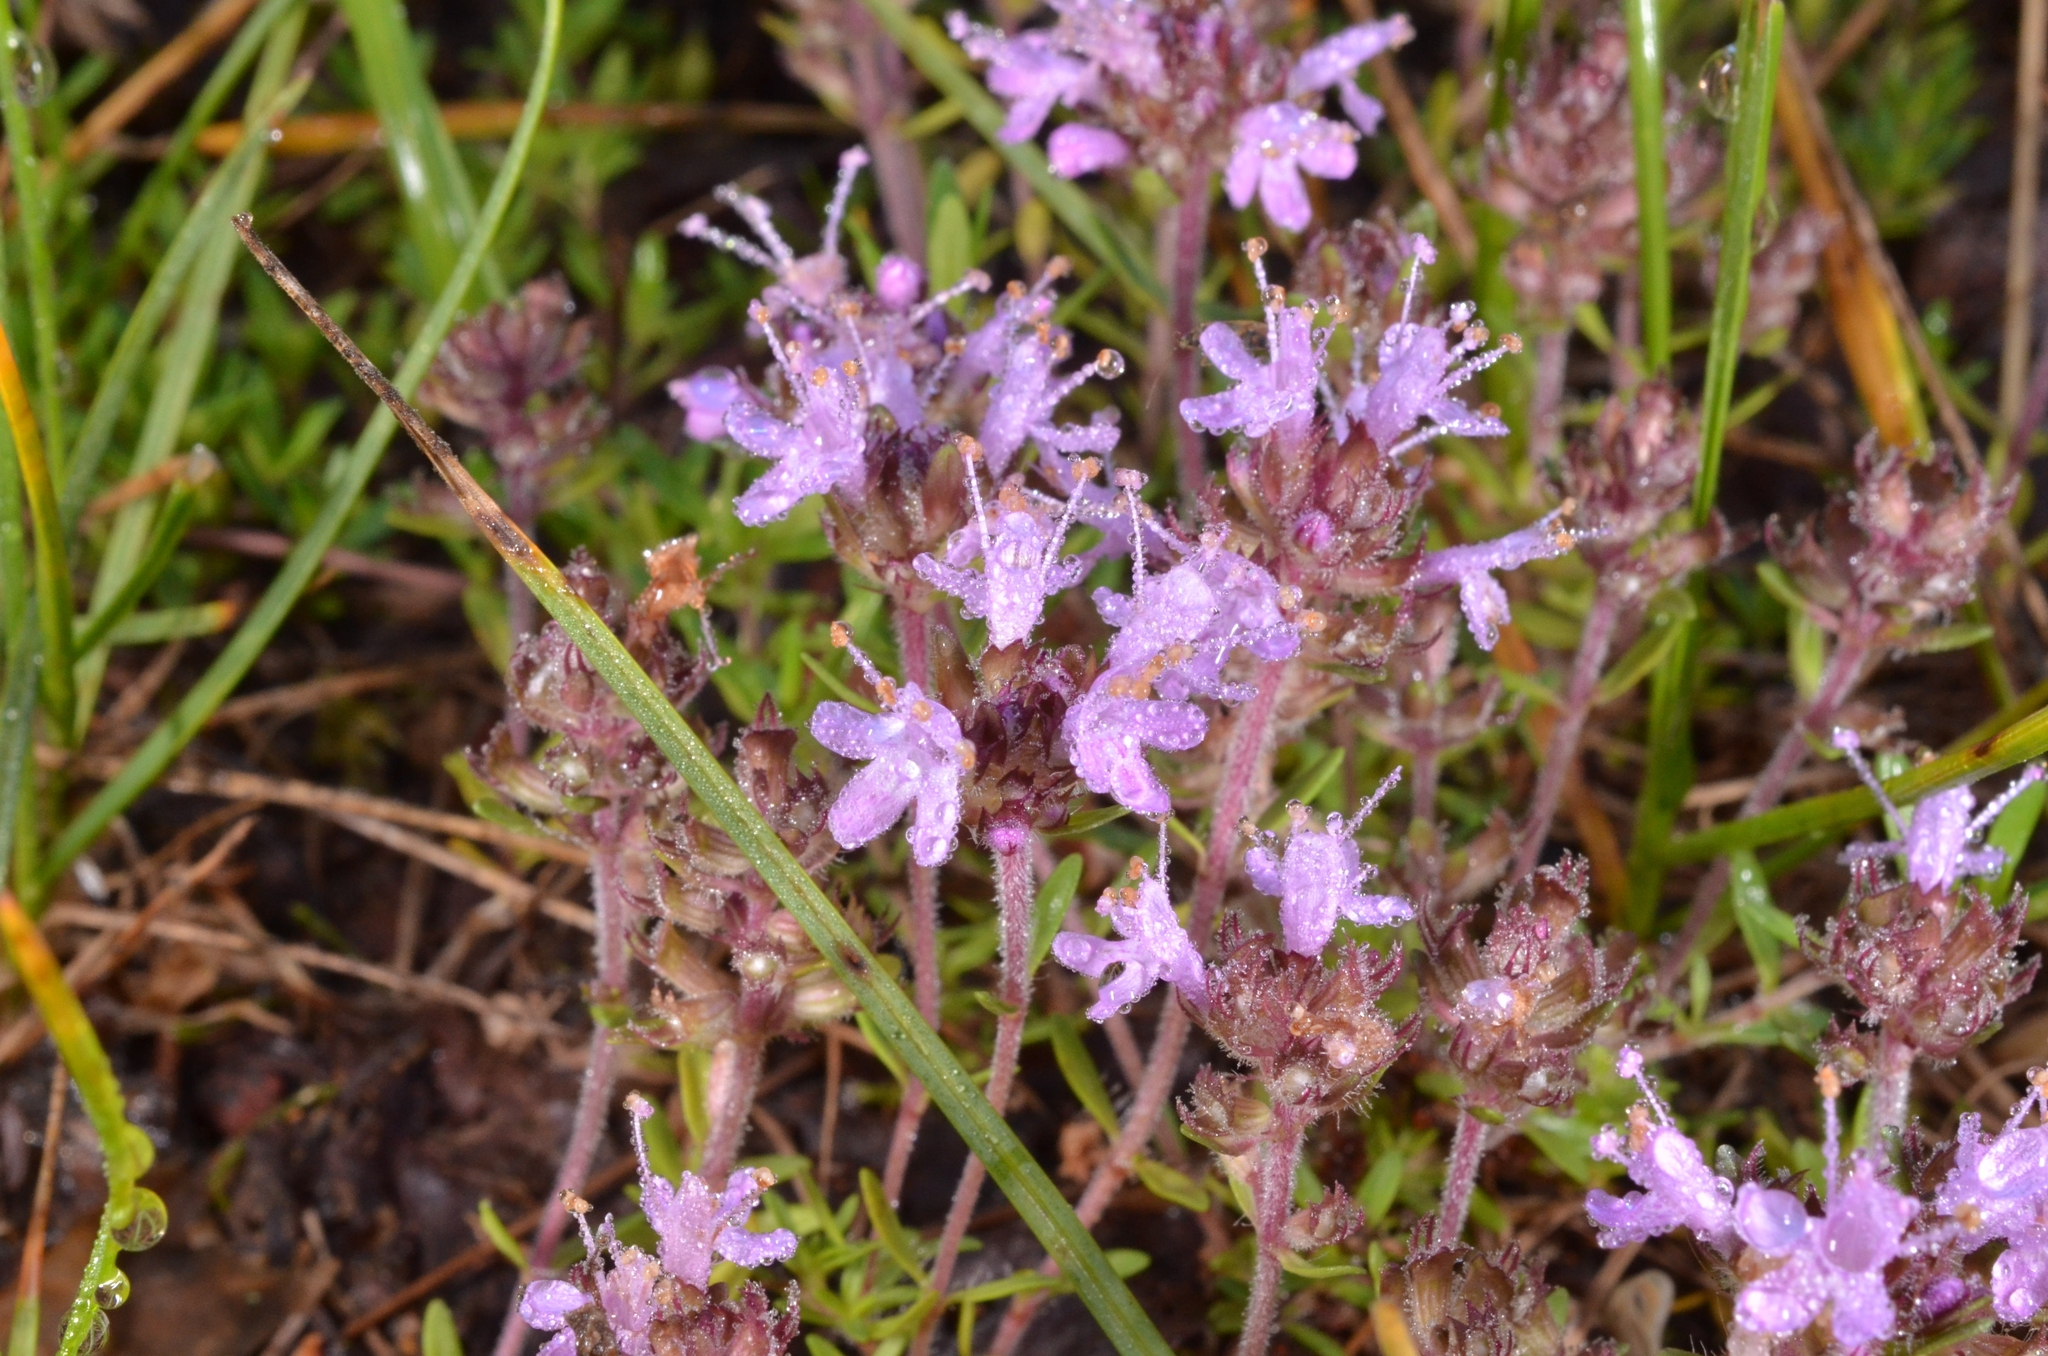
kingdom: Plantae
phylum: Tracheophyta
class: Magnoliopsida
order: Lamiales
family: Lamiaceae
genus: Thymus
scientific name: Thymus serpyllum
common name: Breckland thyme
